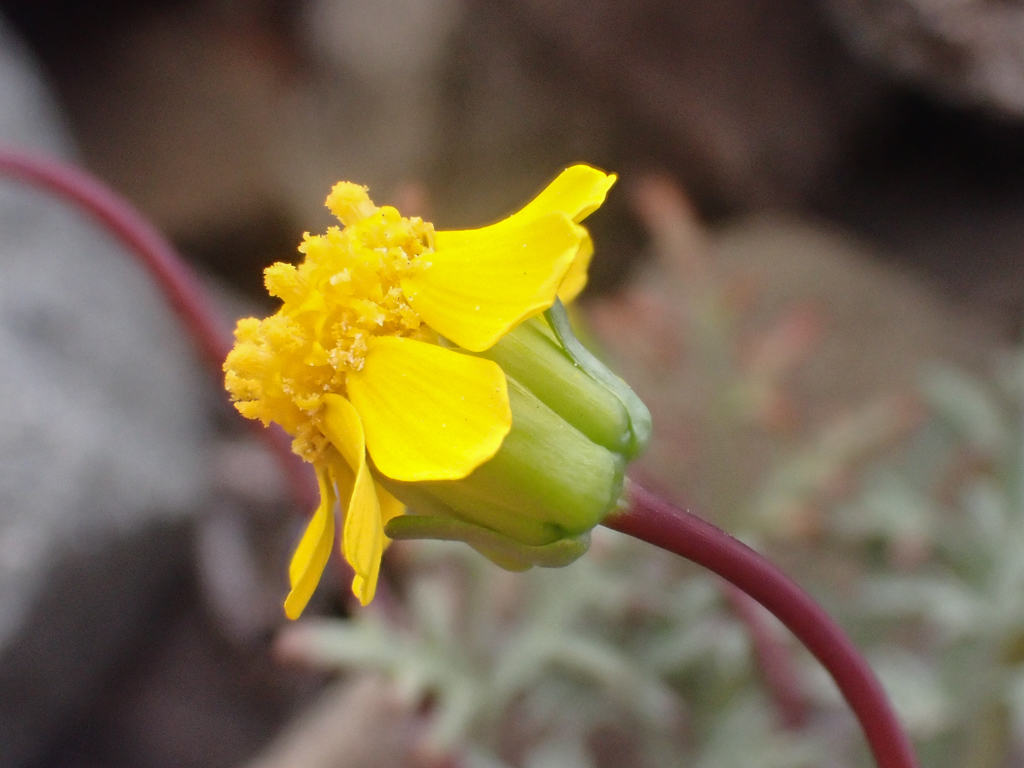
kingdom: Plantae
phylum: Tracheophyta
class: Magnoliopsida
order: Asterales
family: Asteraceae
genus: Coreopsis
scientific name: Coreopsis hamiltonii
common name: Mount hamilton coreopsis
